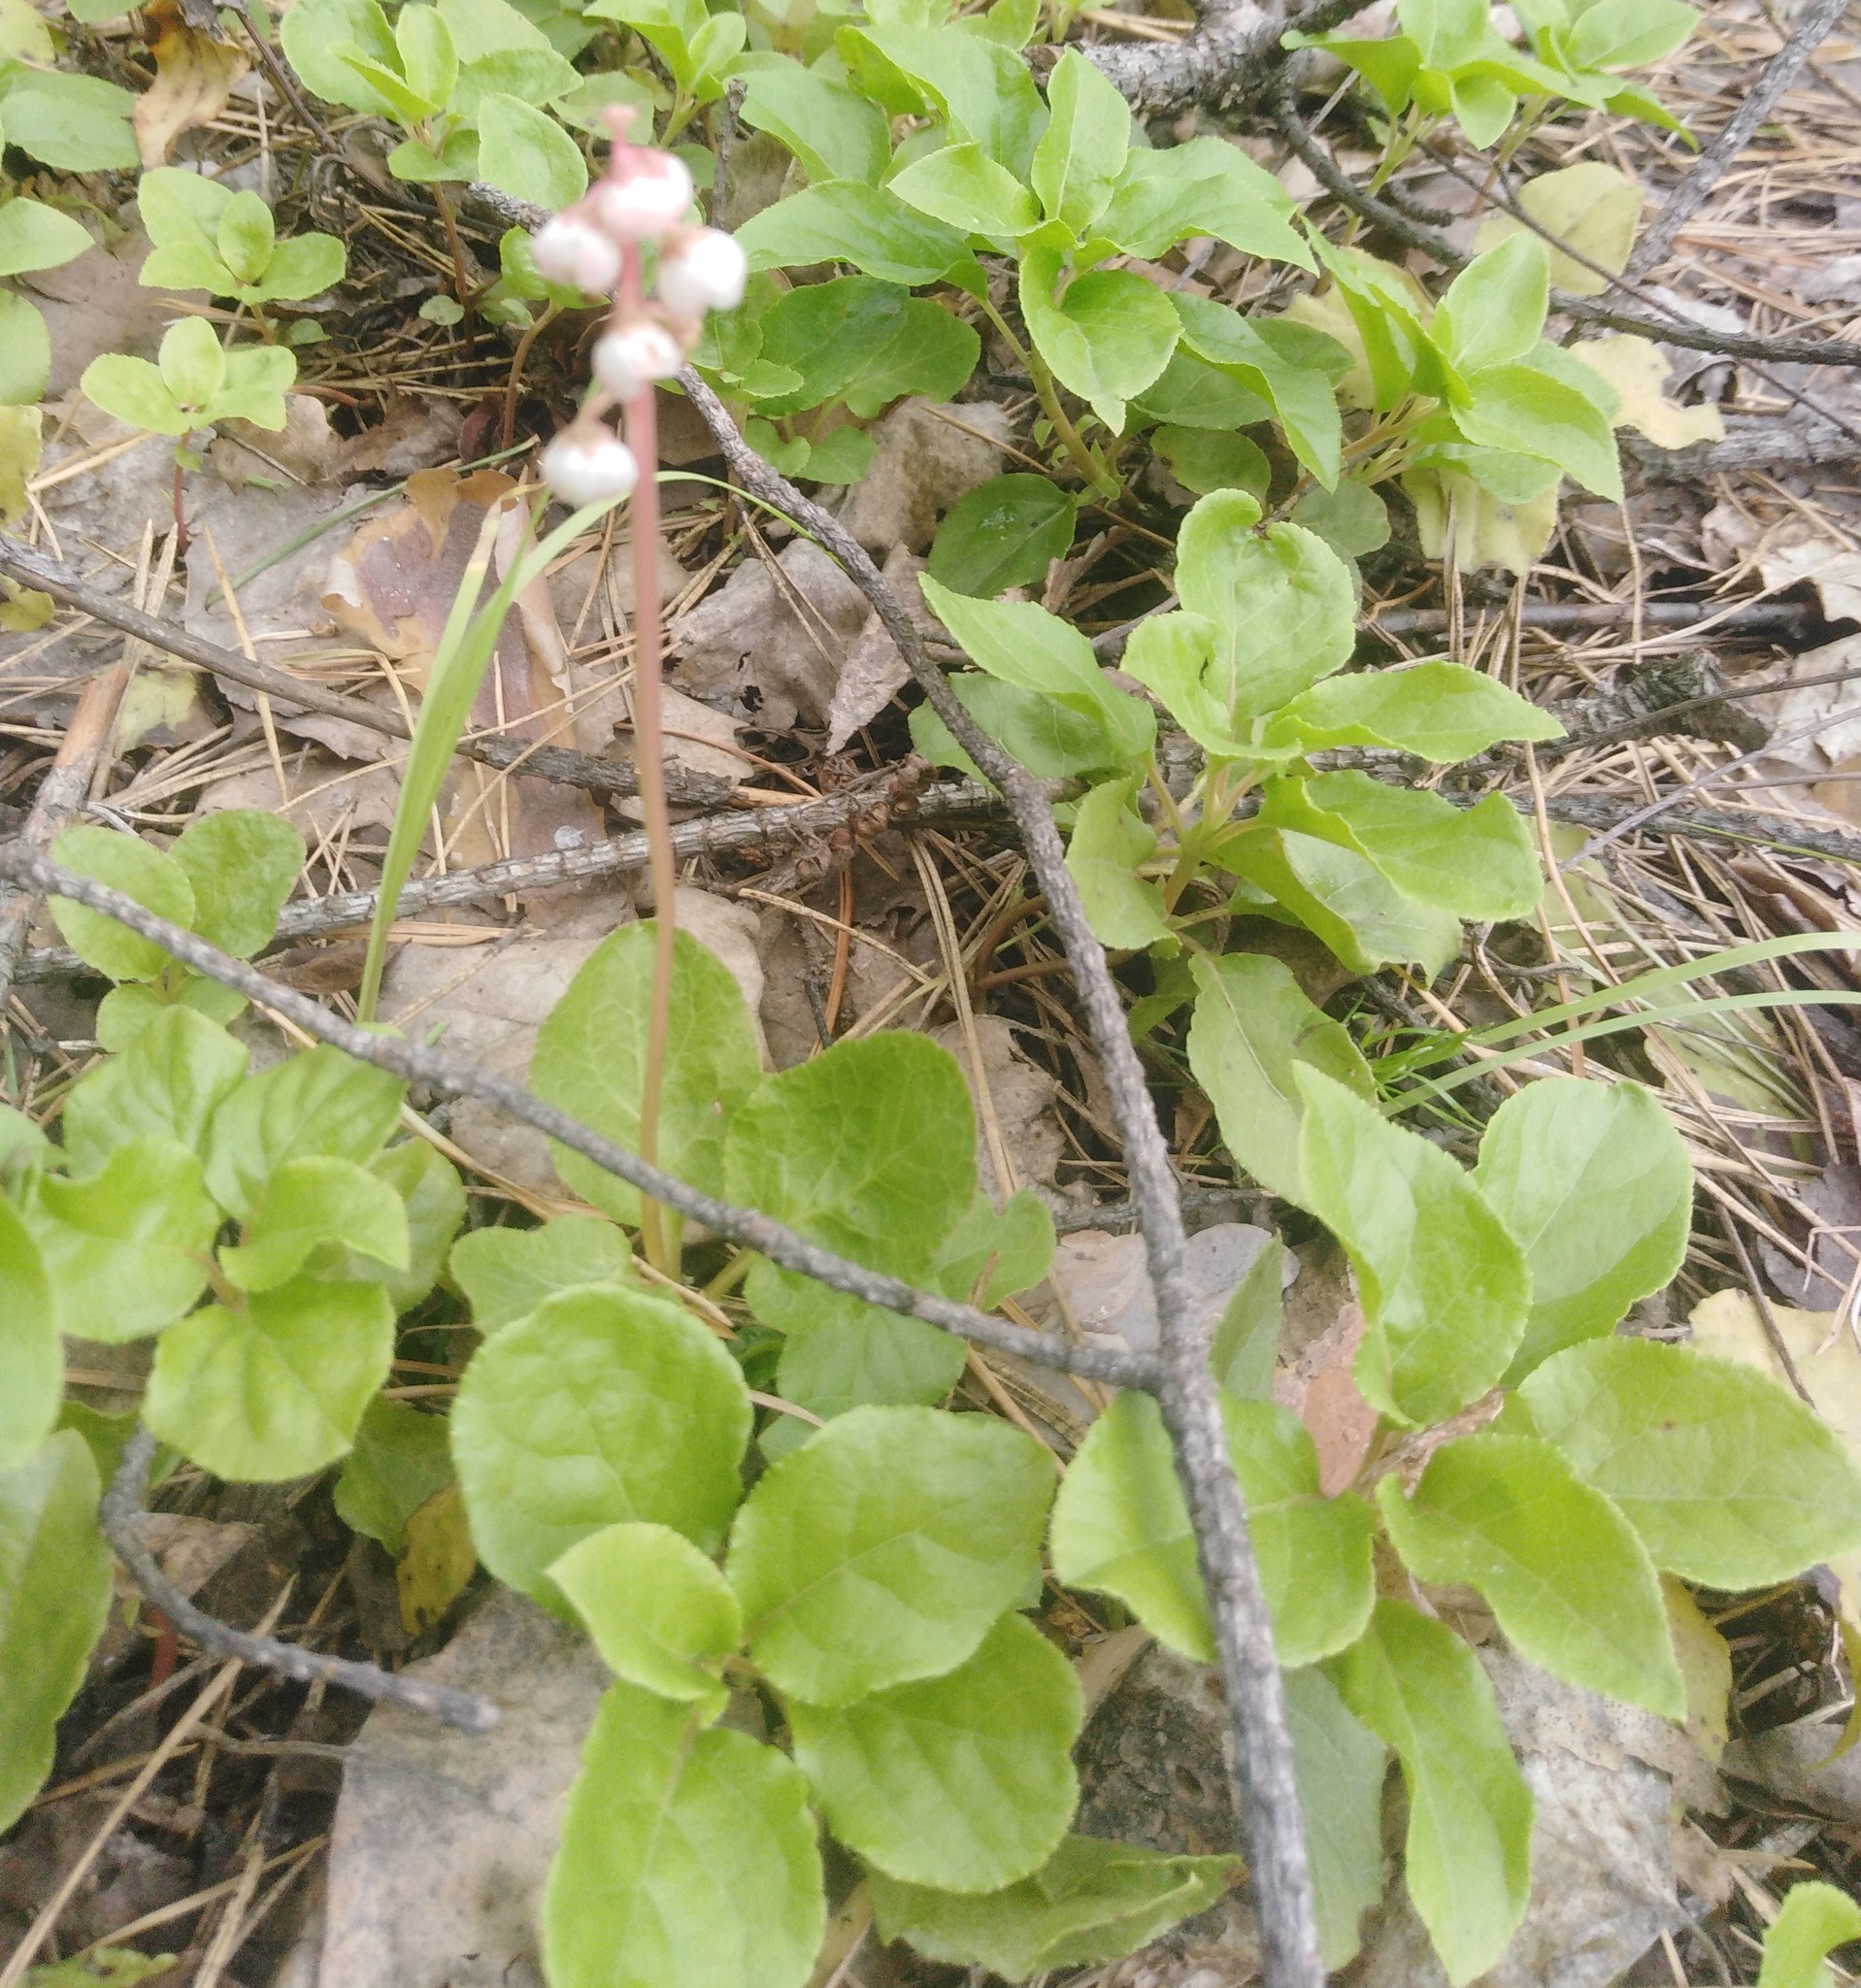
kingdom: Plantae
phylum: Tracheophyta
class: Magnoliopsida
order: Ericales
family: Ericaceae
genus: Pyrola
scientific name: Pyrola minor
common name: Common wintergreen
